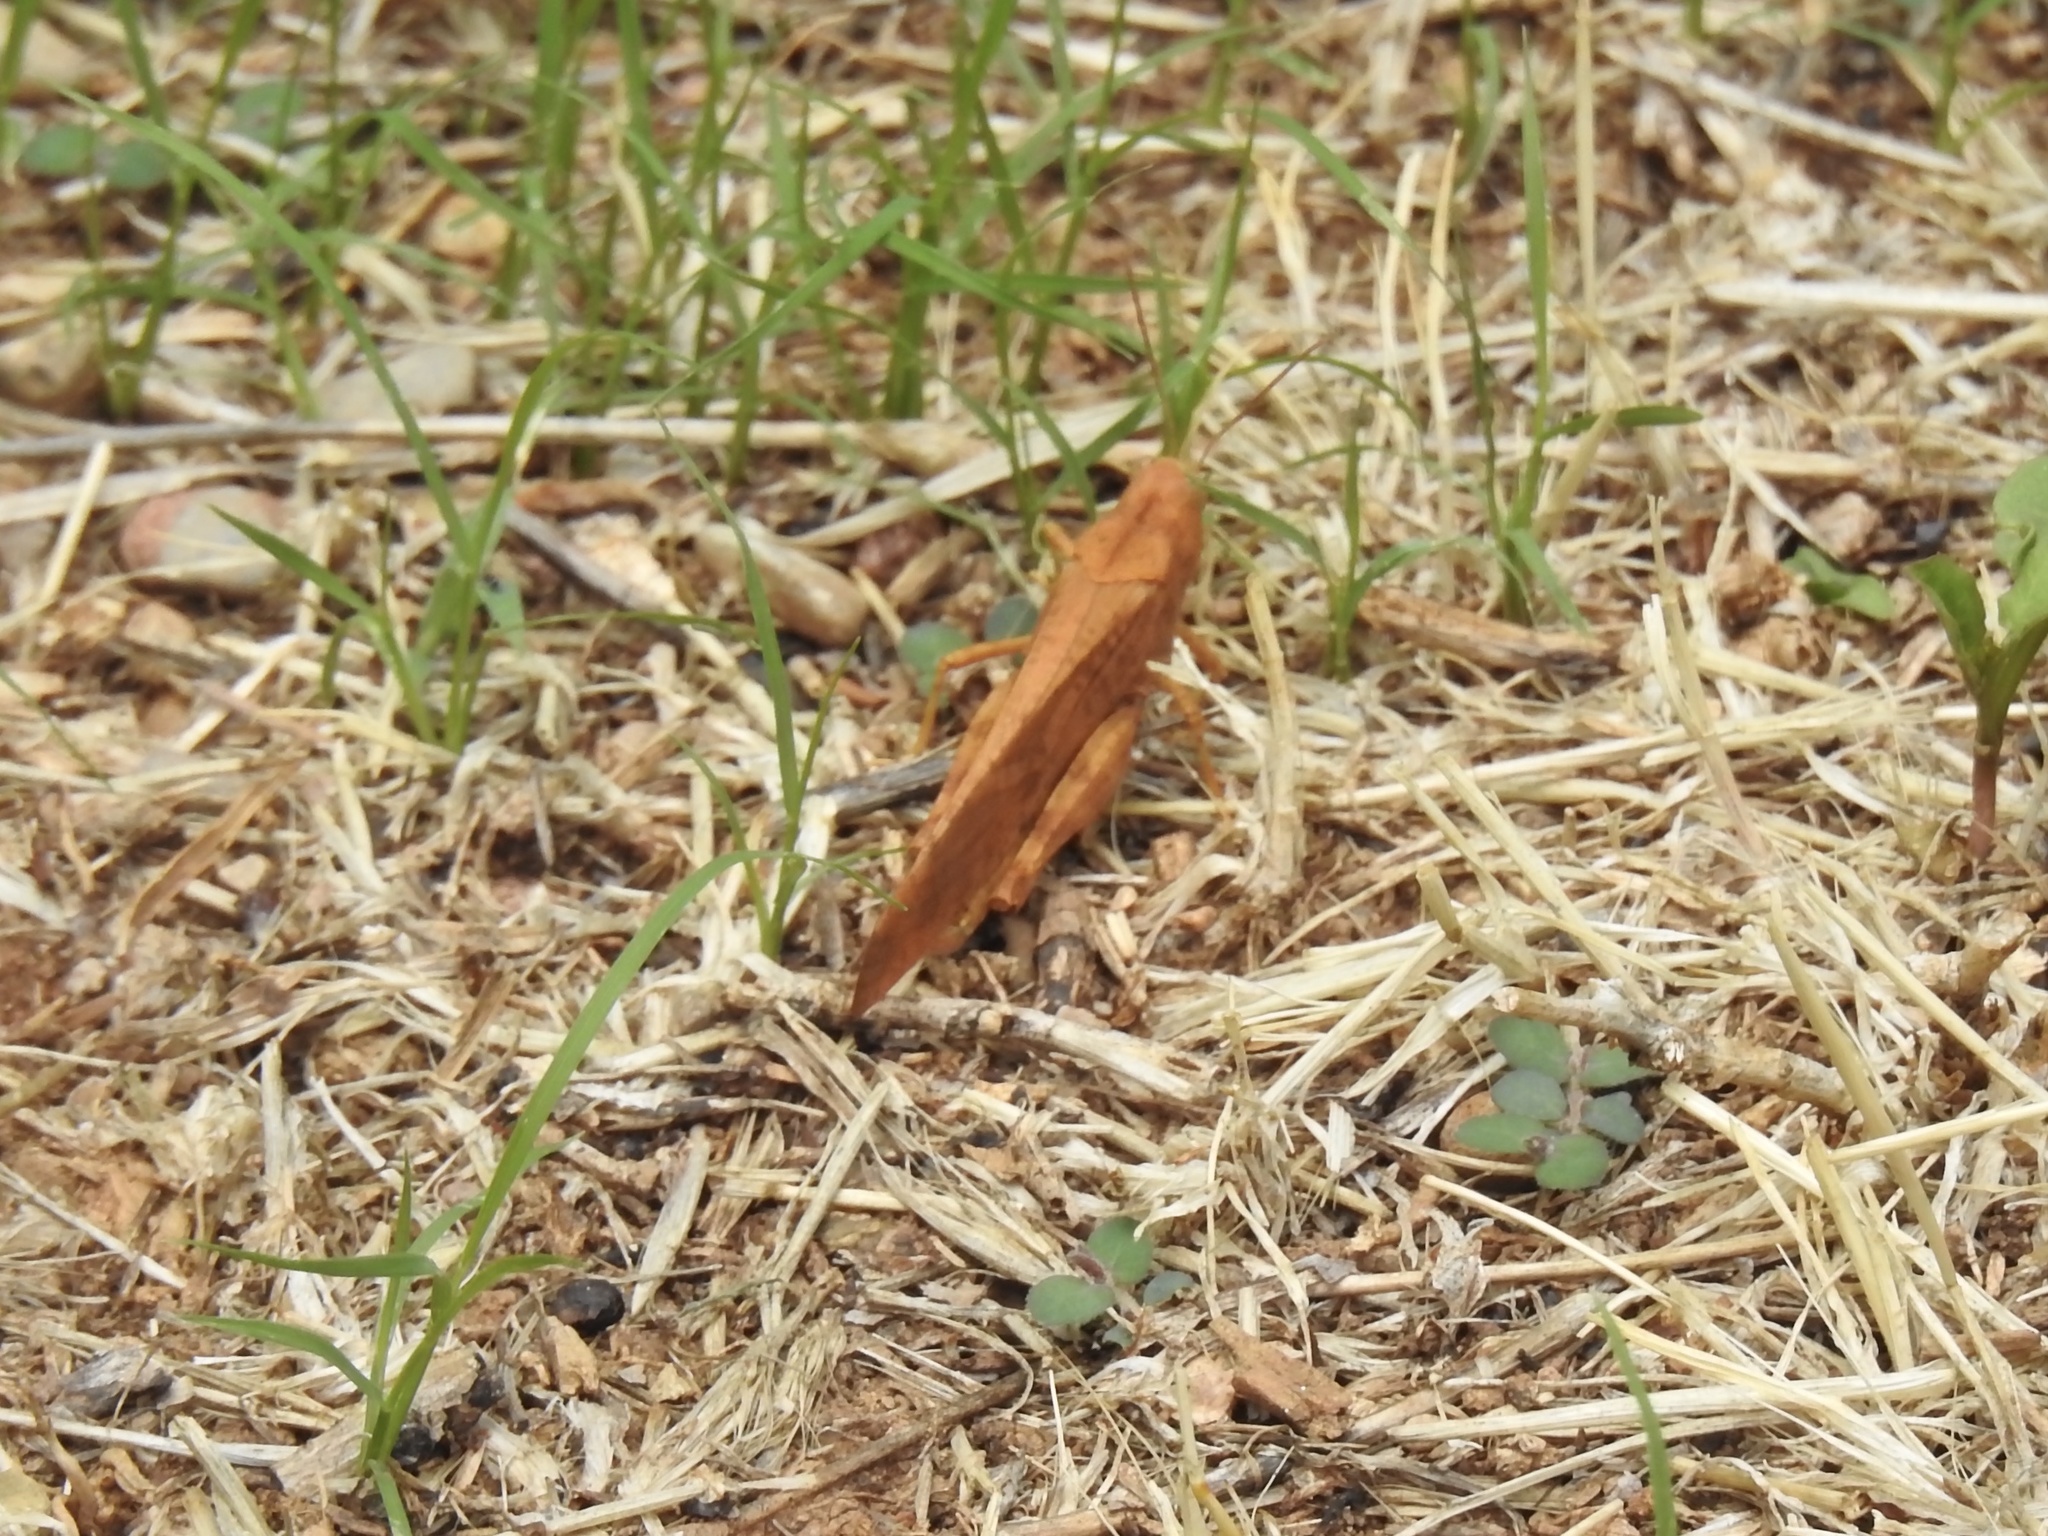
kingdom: Animalia
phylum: Arthropoda
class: Insecta
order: Orthoptera
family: Acrididae
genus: Dissosteira
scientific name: Dissosteira carolina
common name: Carolina grasshopper
